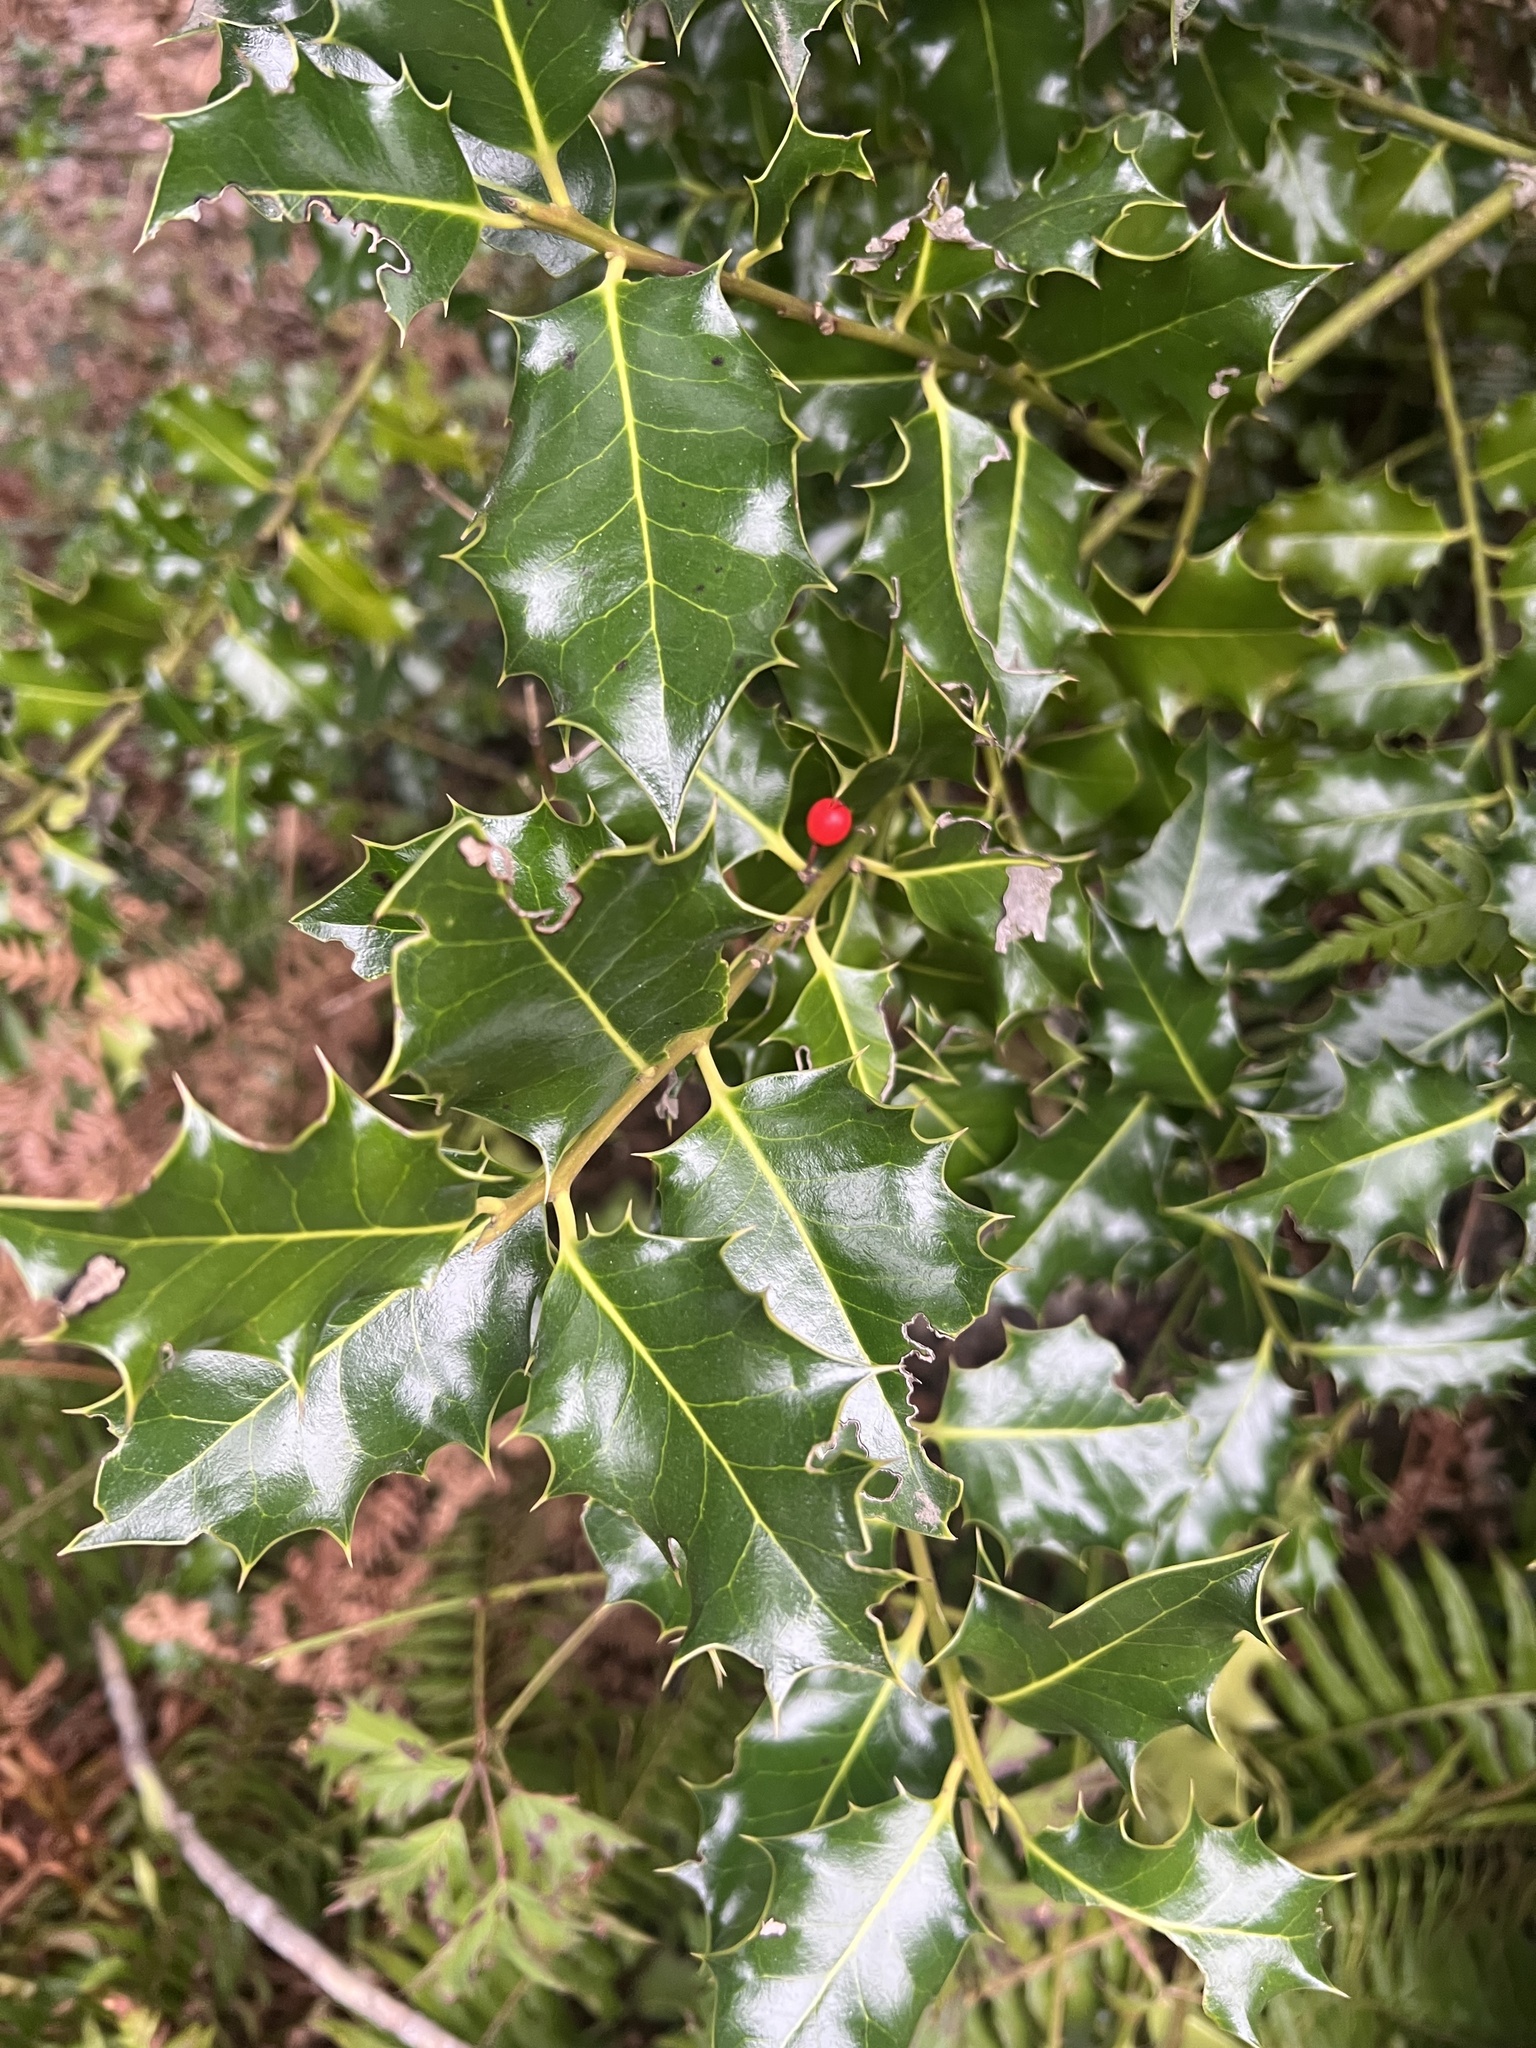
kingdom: Plantae
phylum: Tracheophyta
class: Magnoliopsida
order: Aquifoliales
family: Aquifoliaceae
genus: Ilex
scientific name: Ilex aquifolium
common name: English holly
